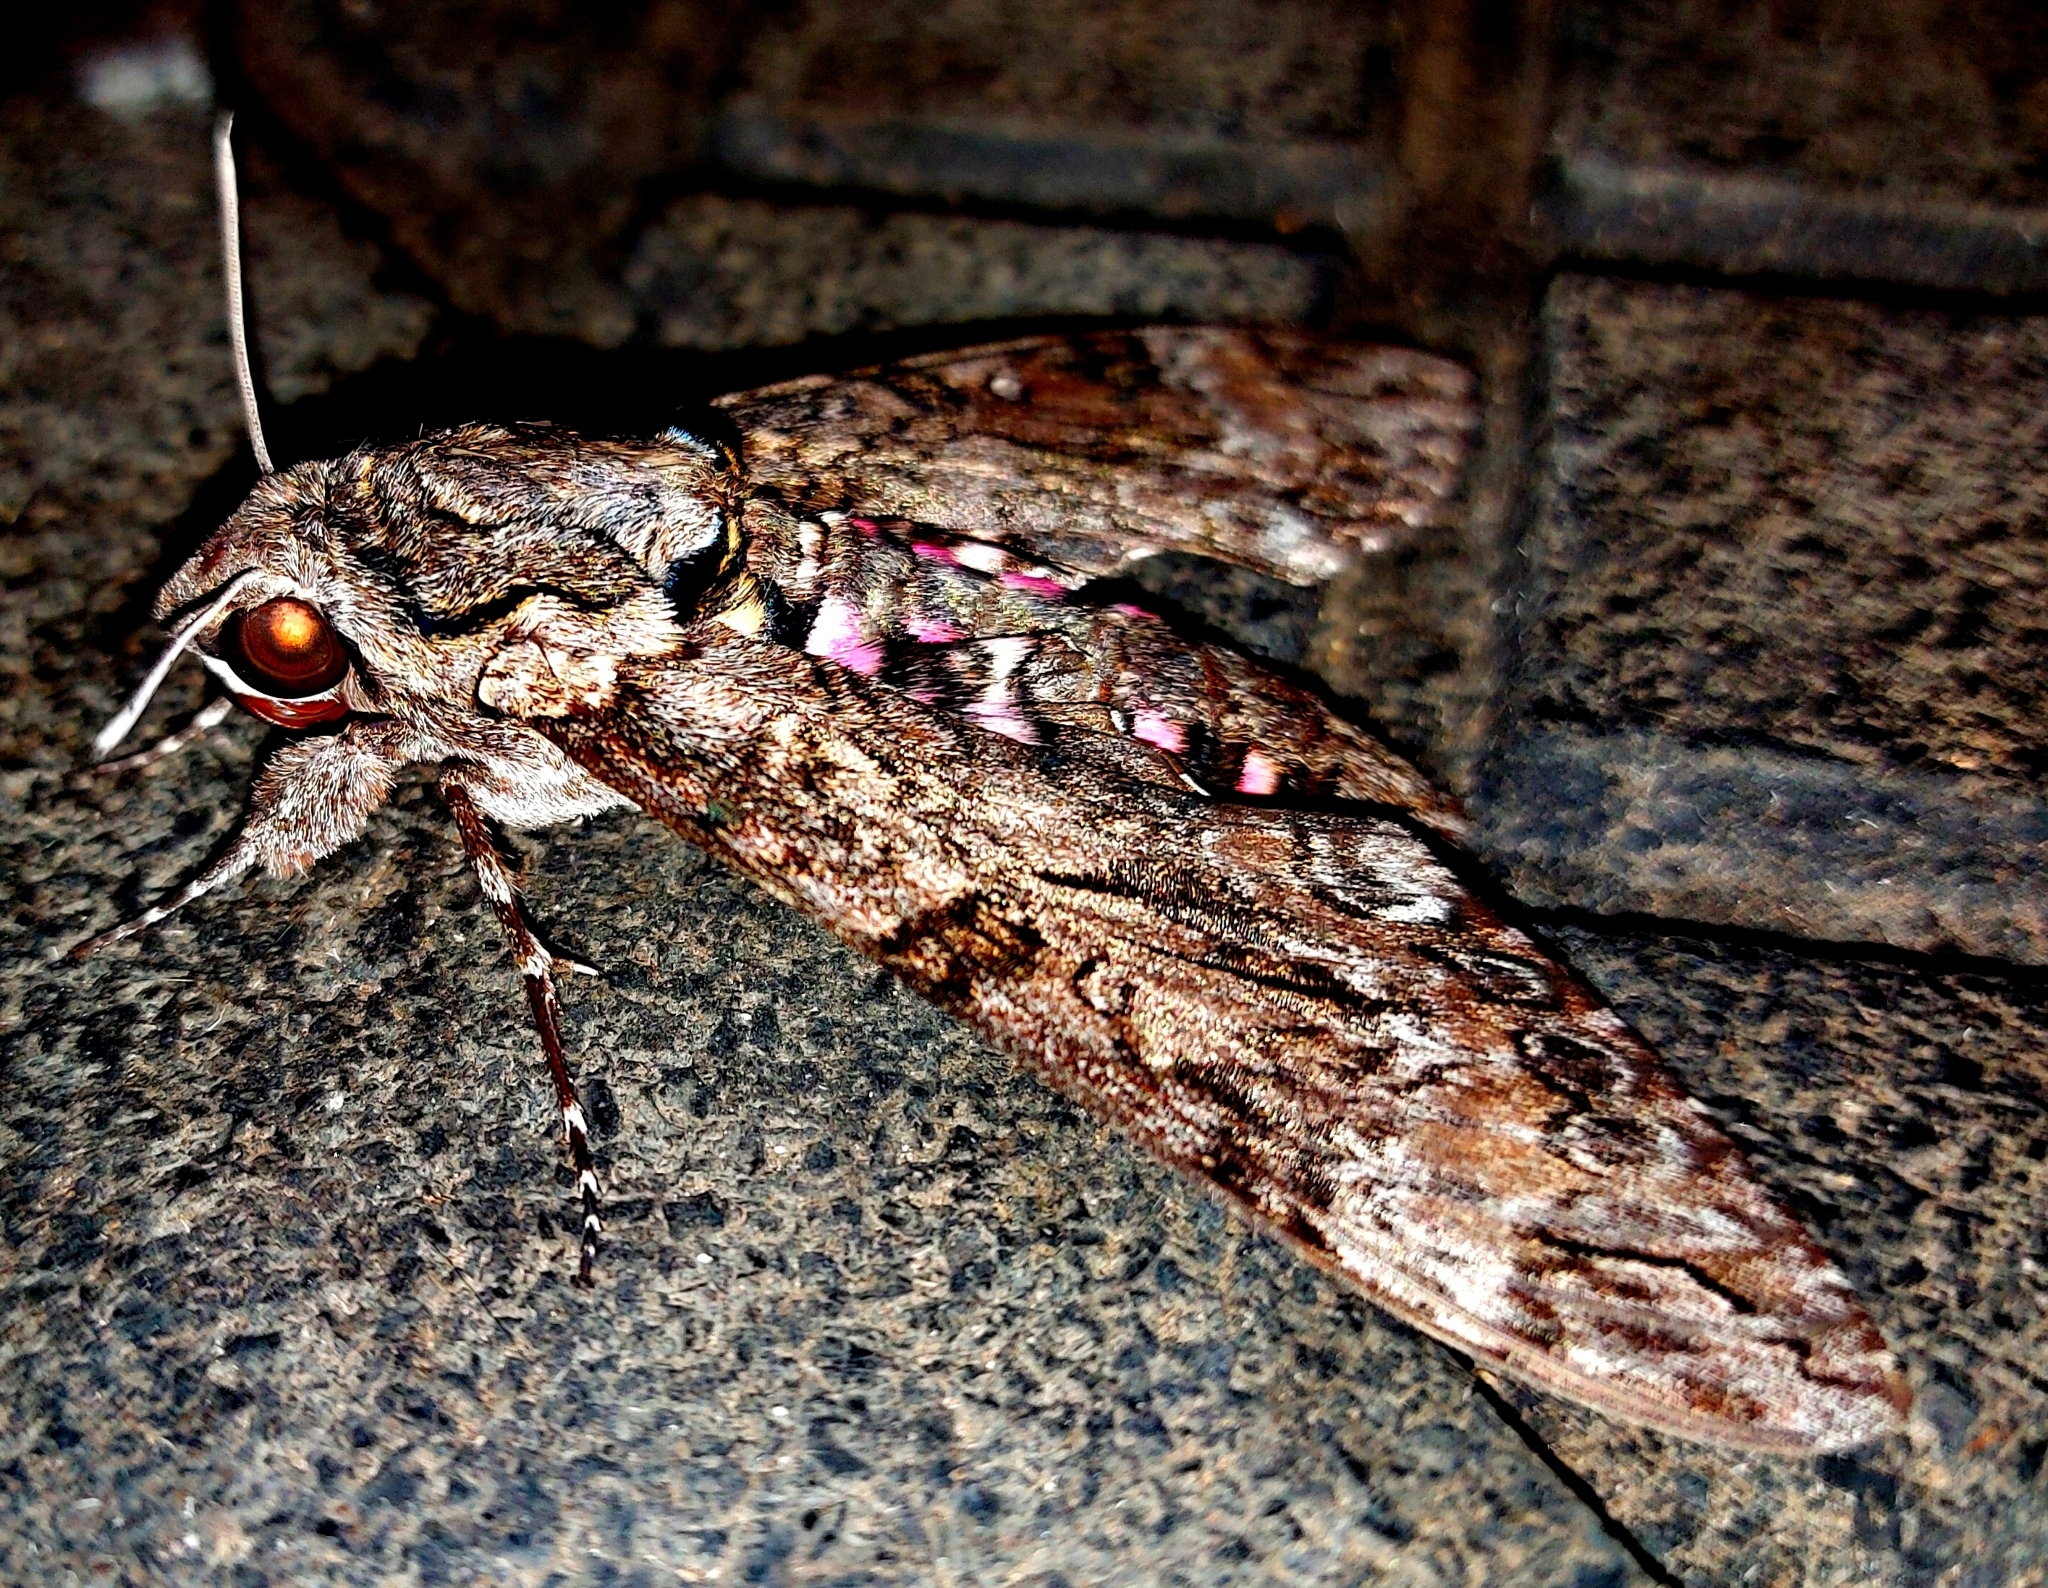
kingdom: Animalia
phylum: Arthropoda
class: Insecta
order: Lepidoptera
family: Sphingidae
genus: Agrius
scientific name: Agrius cingulata
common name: Pink-spotted hawkmoth
